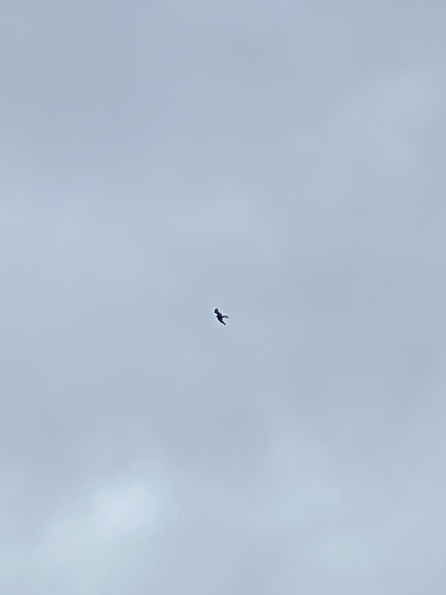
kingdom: Animalia
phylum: Chordata
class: Aves
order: Accipitriformes
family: Accipitridae
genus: Milvus
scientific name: Milvus milvus
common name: Red kite
